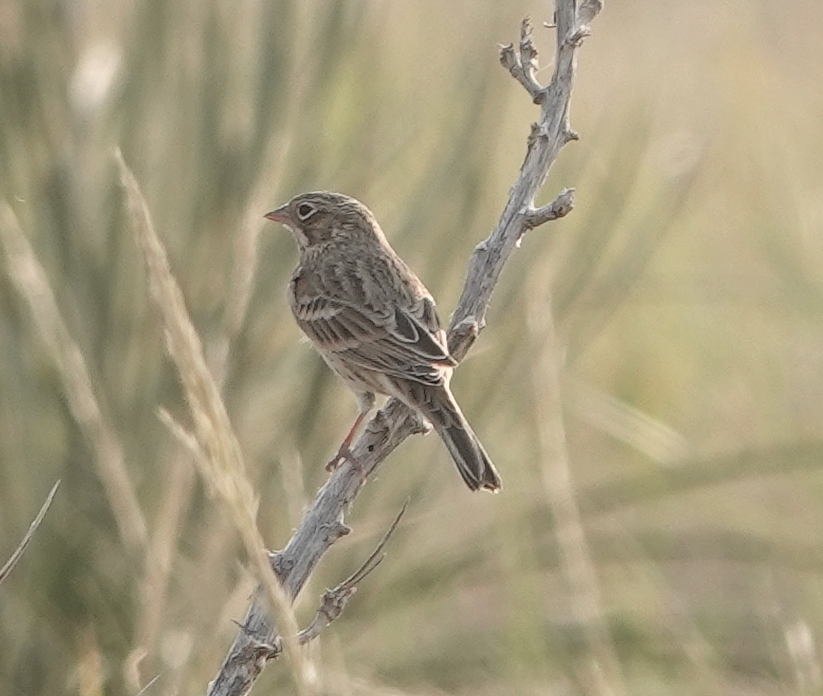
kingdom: Animalia
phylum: Chordata
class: Aves
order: Passeriformes
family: Passerellidae
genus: Pooecetes
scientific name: Pooecetes gramineus
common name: Vesper sparrow
